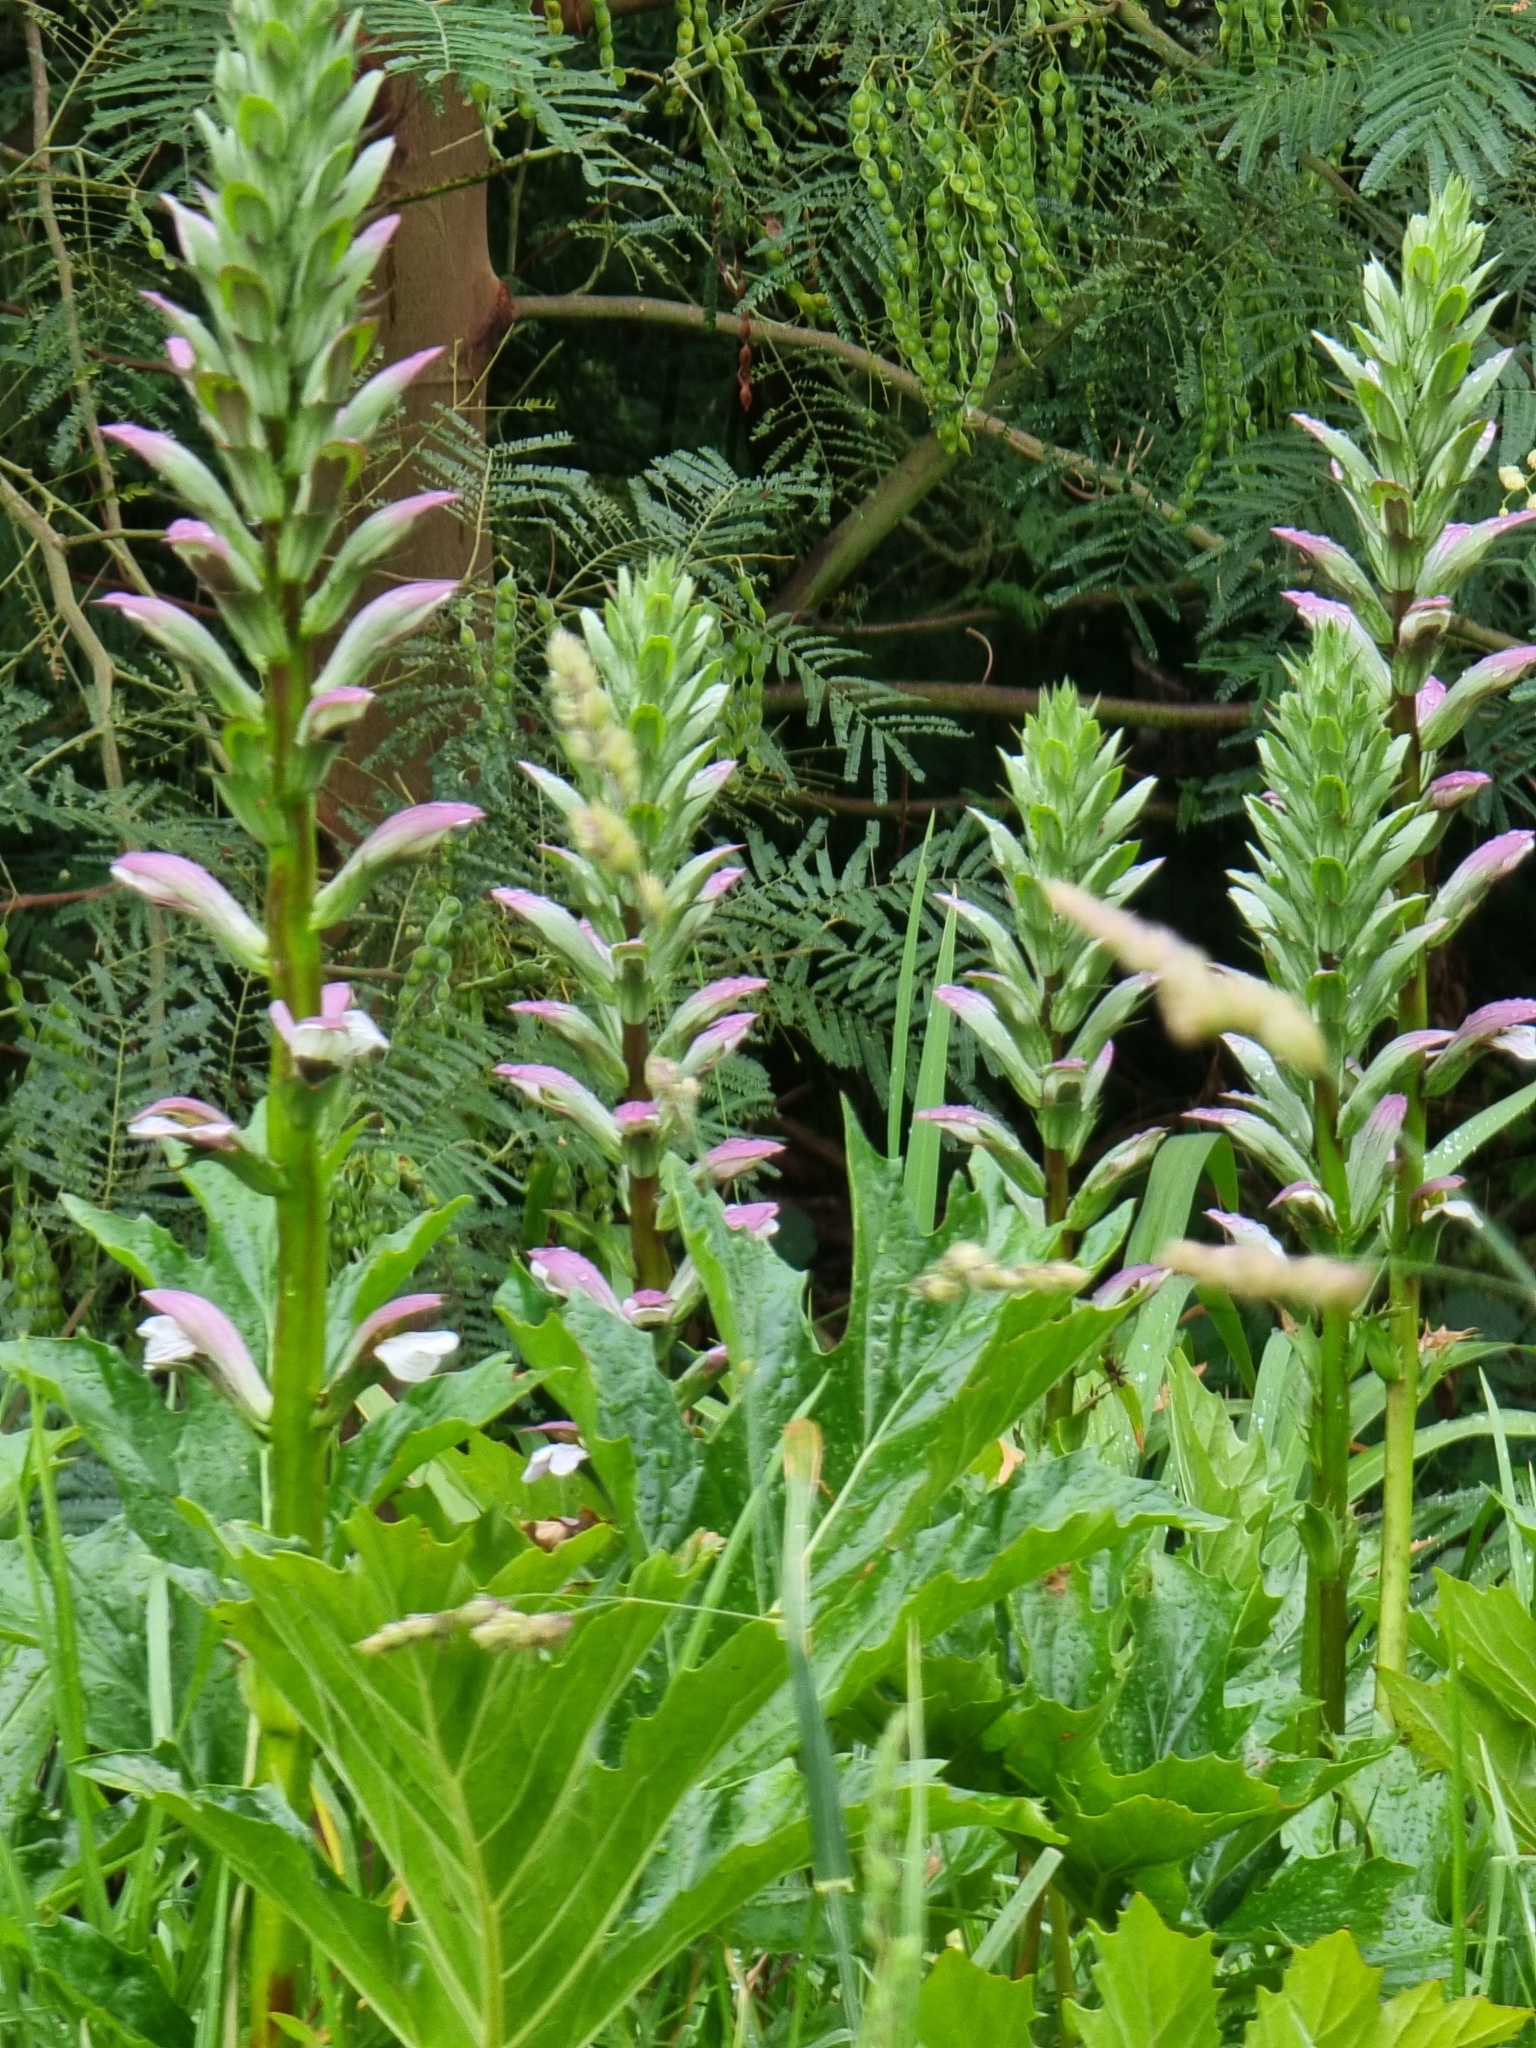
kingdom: Plantae
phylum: Tracheophyta
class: Magnoliopsida
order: Lamiales
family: Acanthaceae
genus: Acanthus
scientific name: Acanthus mollis
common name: Bear's-breech
